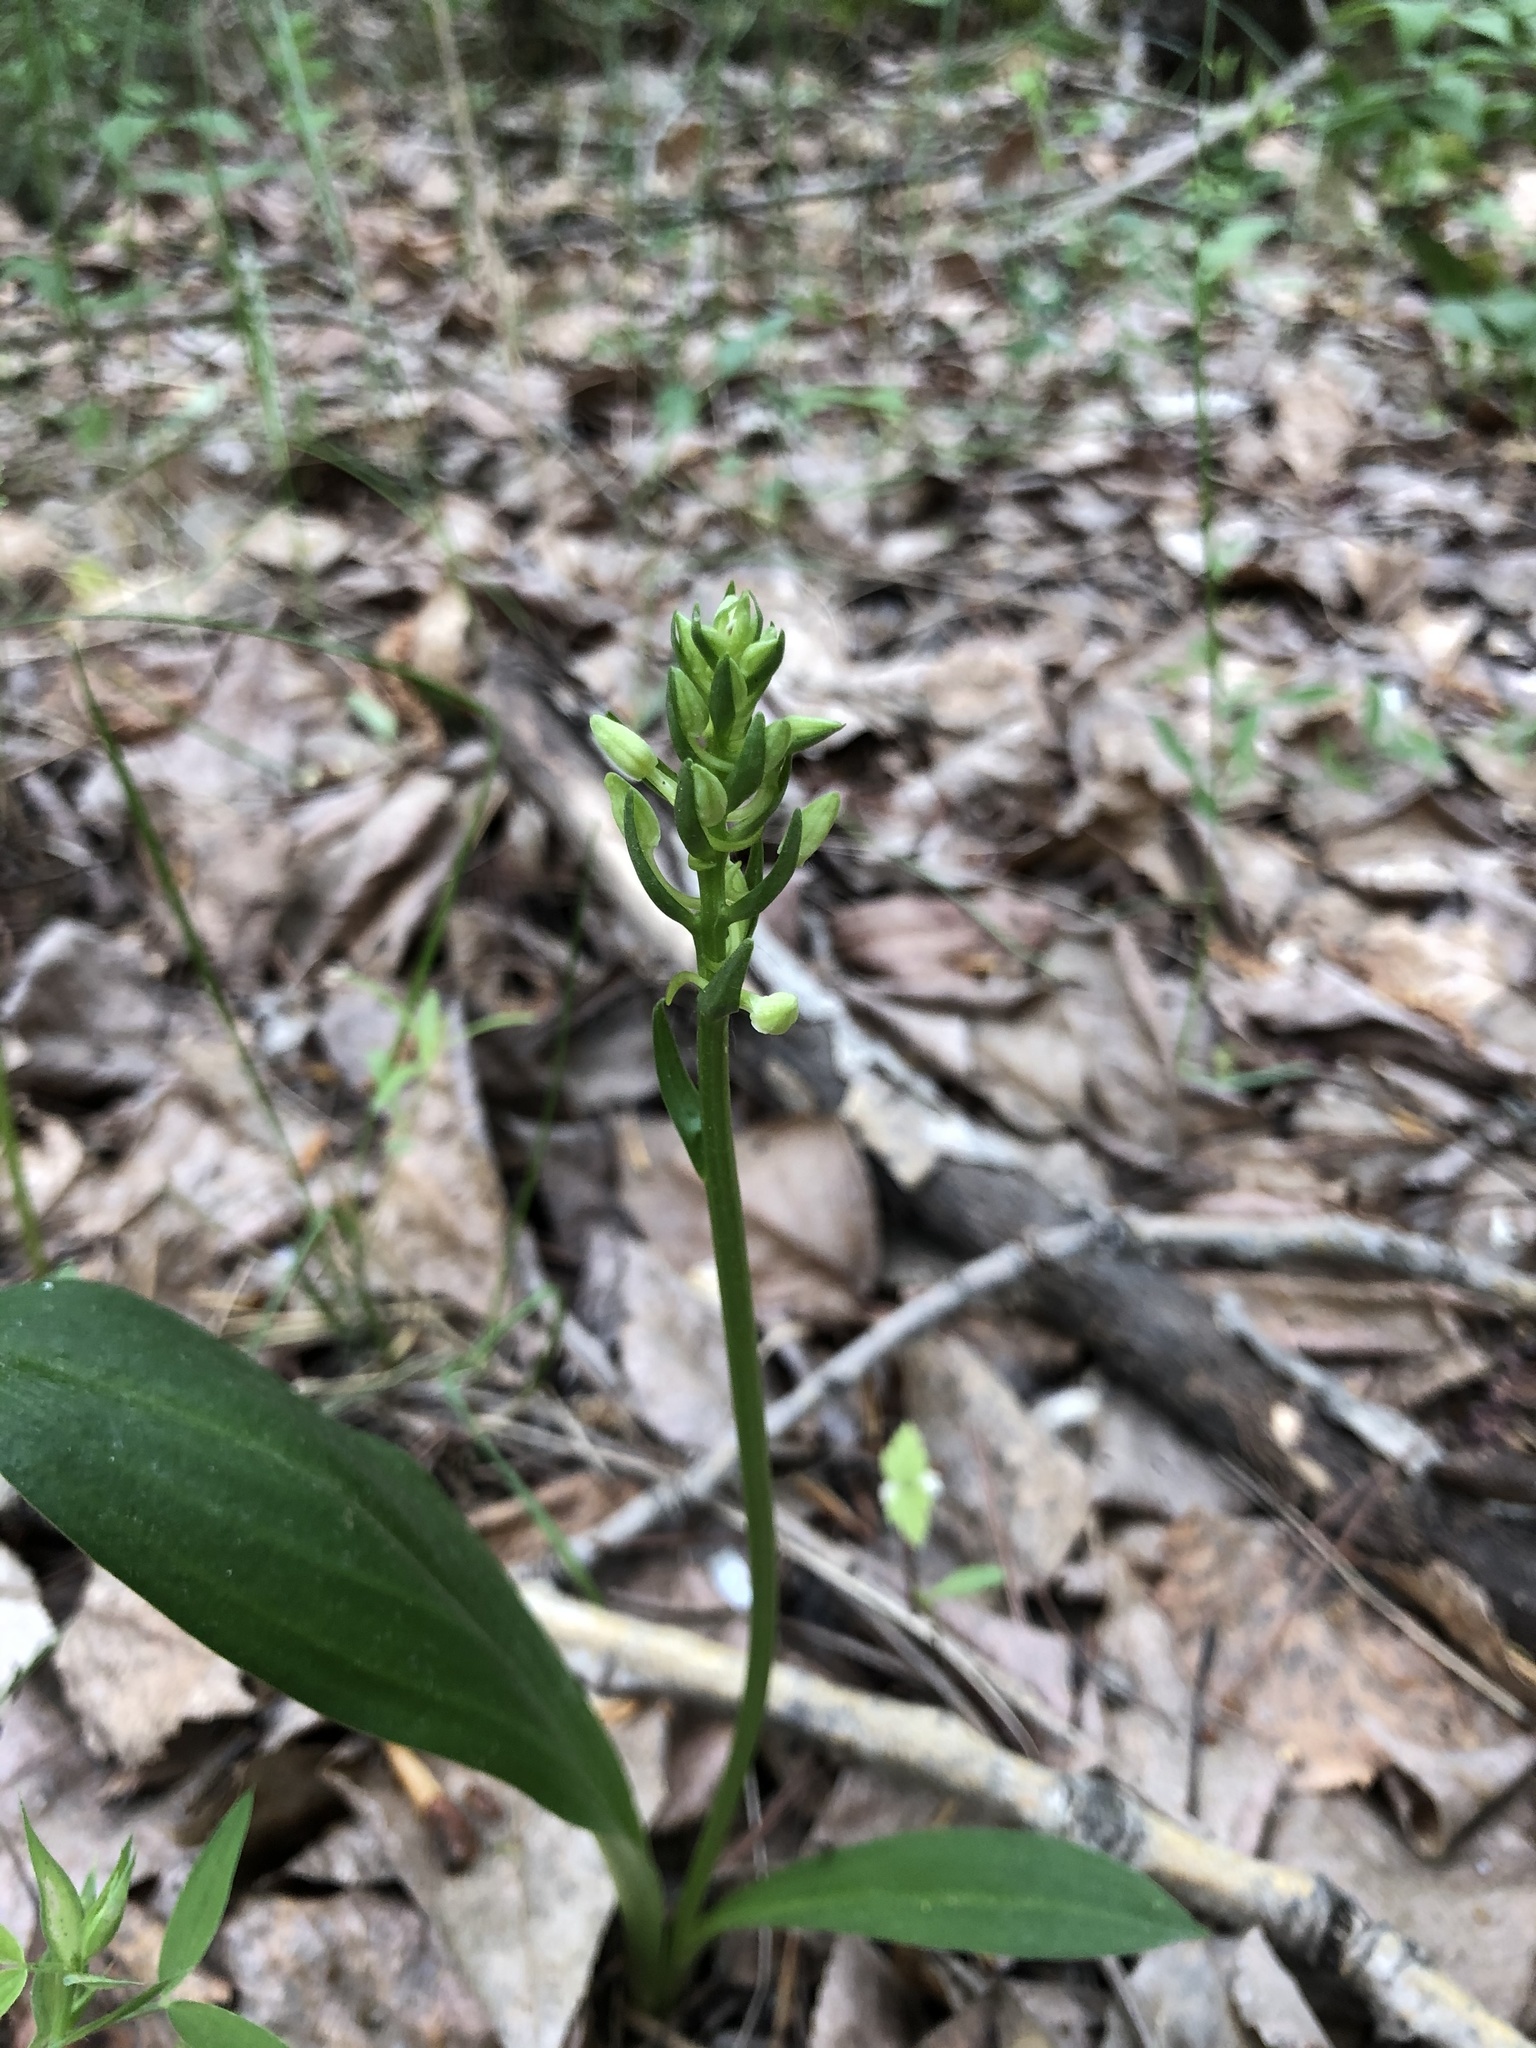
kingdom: Plantae
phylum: Tracheophyta
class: Liliopsida
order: Asparagales
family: Orchidaceae
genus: Platanthera
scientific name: Platanthera bifolia
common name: Lesser butterfly-orchid
